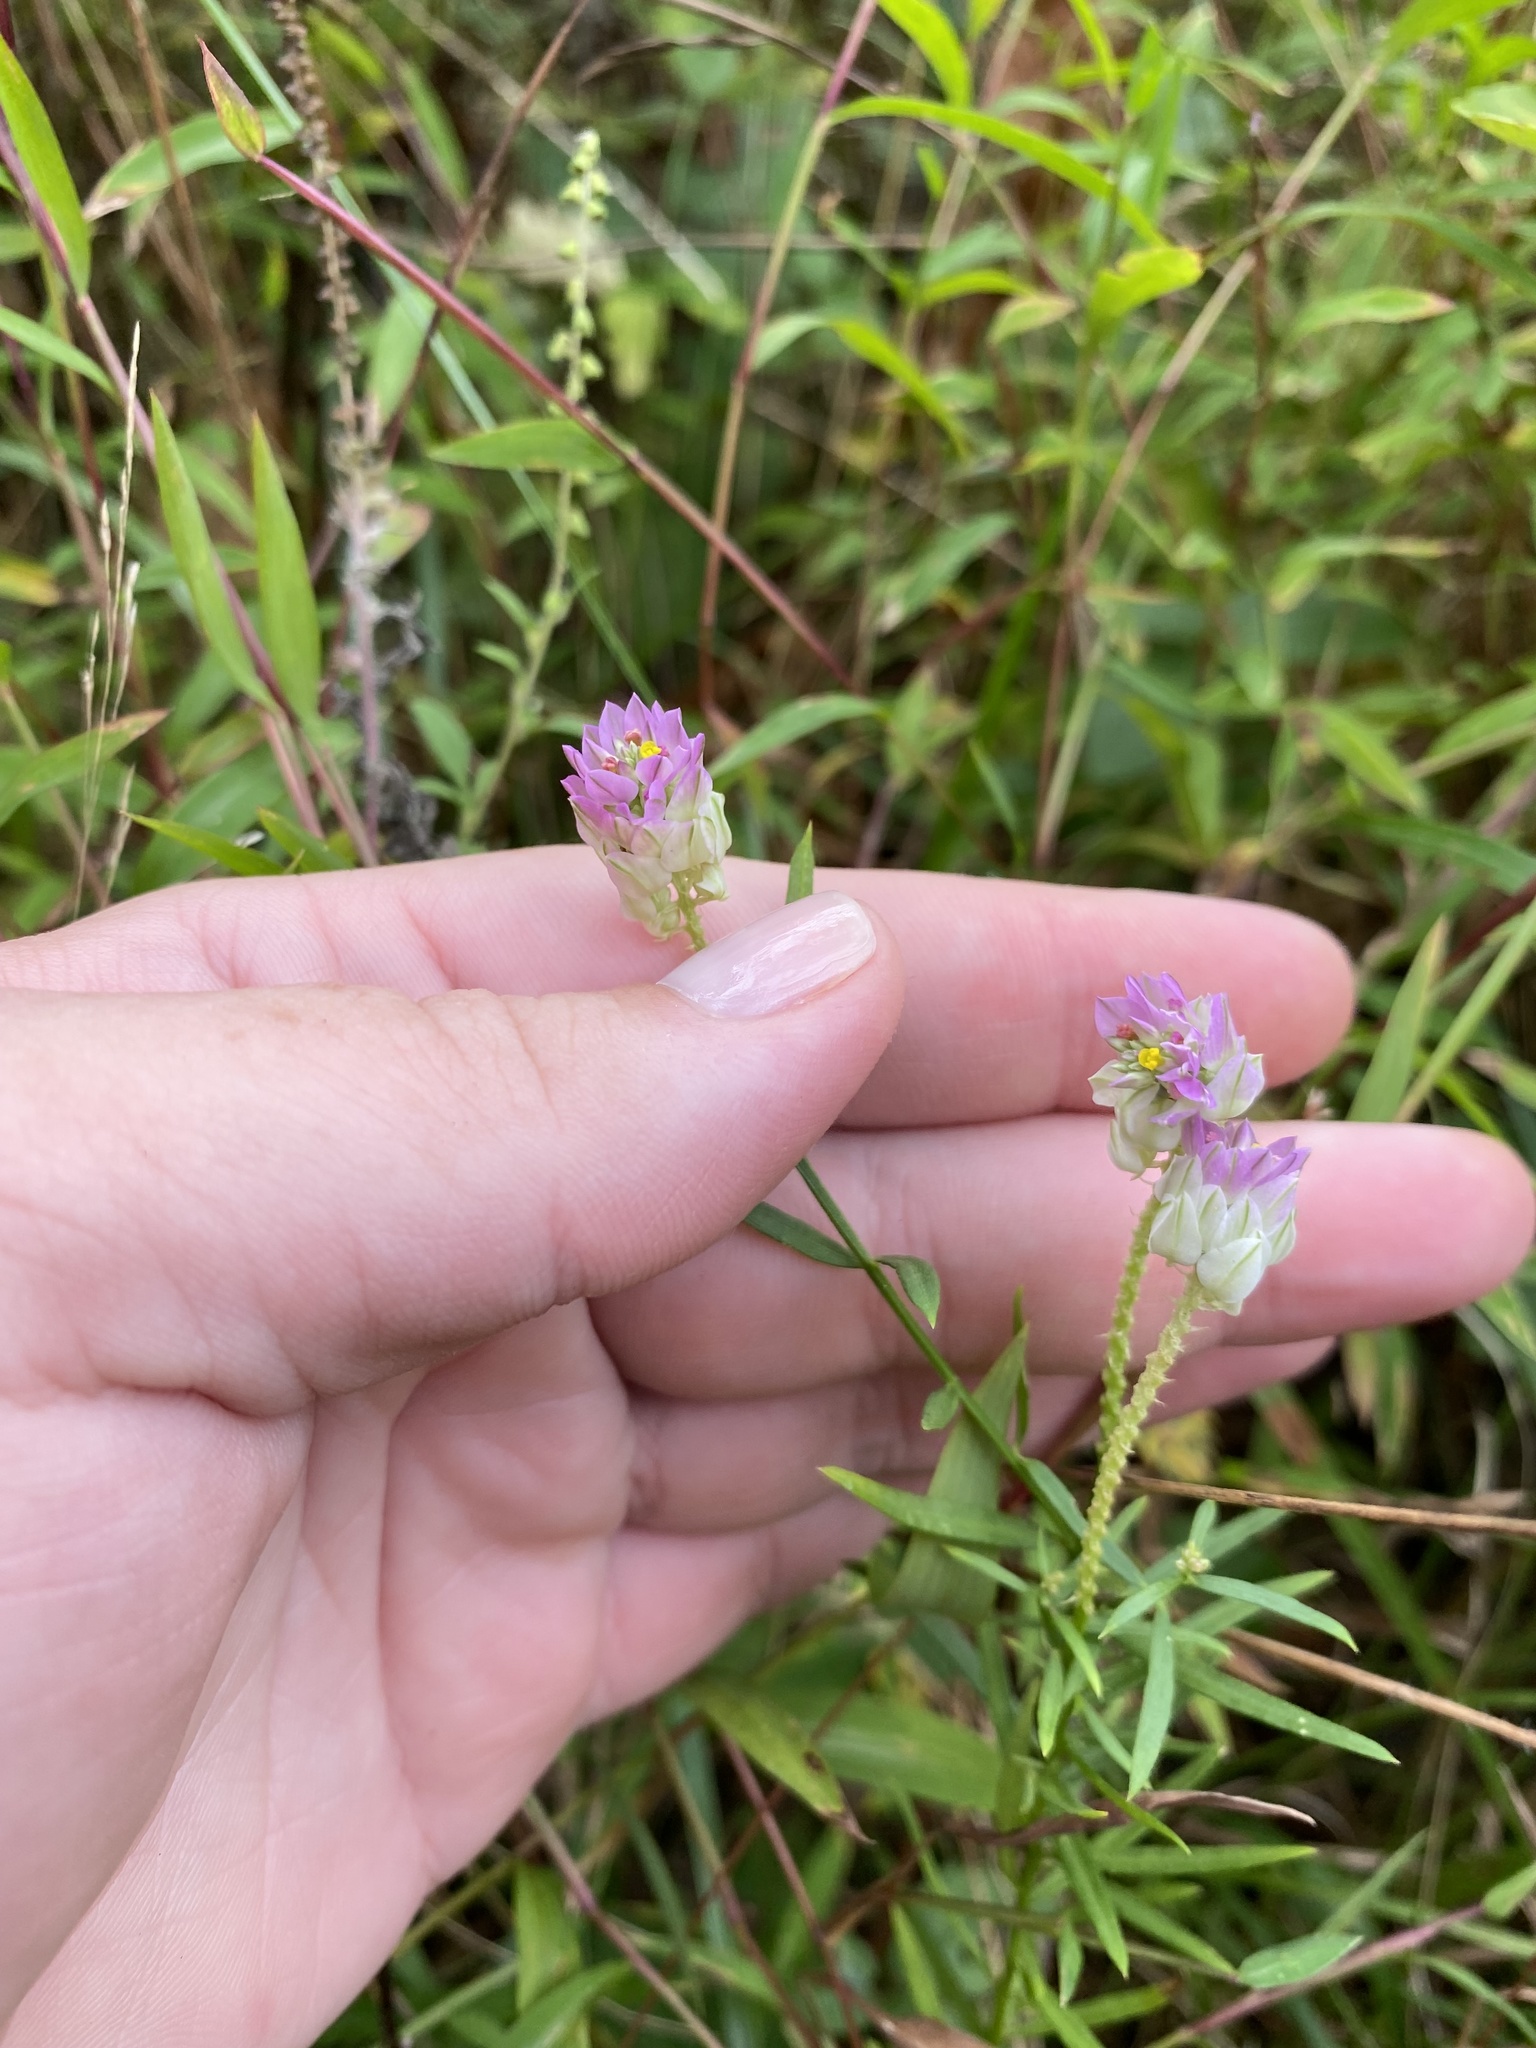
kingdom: Plantae
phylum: Tracheophyta
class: Magnoliopsida
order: Fabales
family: Polygalaceae
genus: Polygala
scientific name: Polygala sanguinea
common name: Blood milkwort
